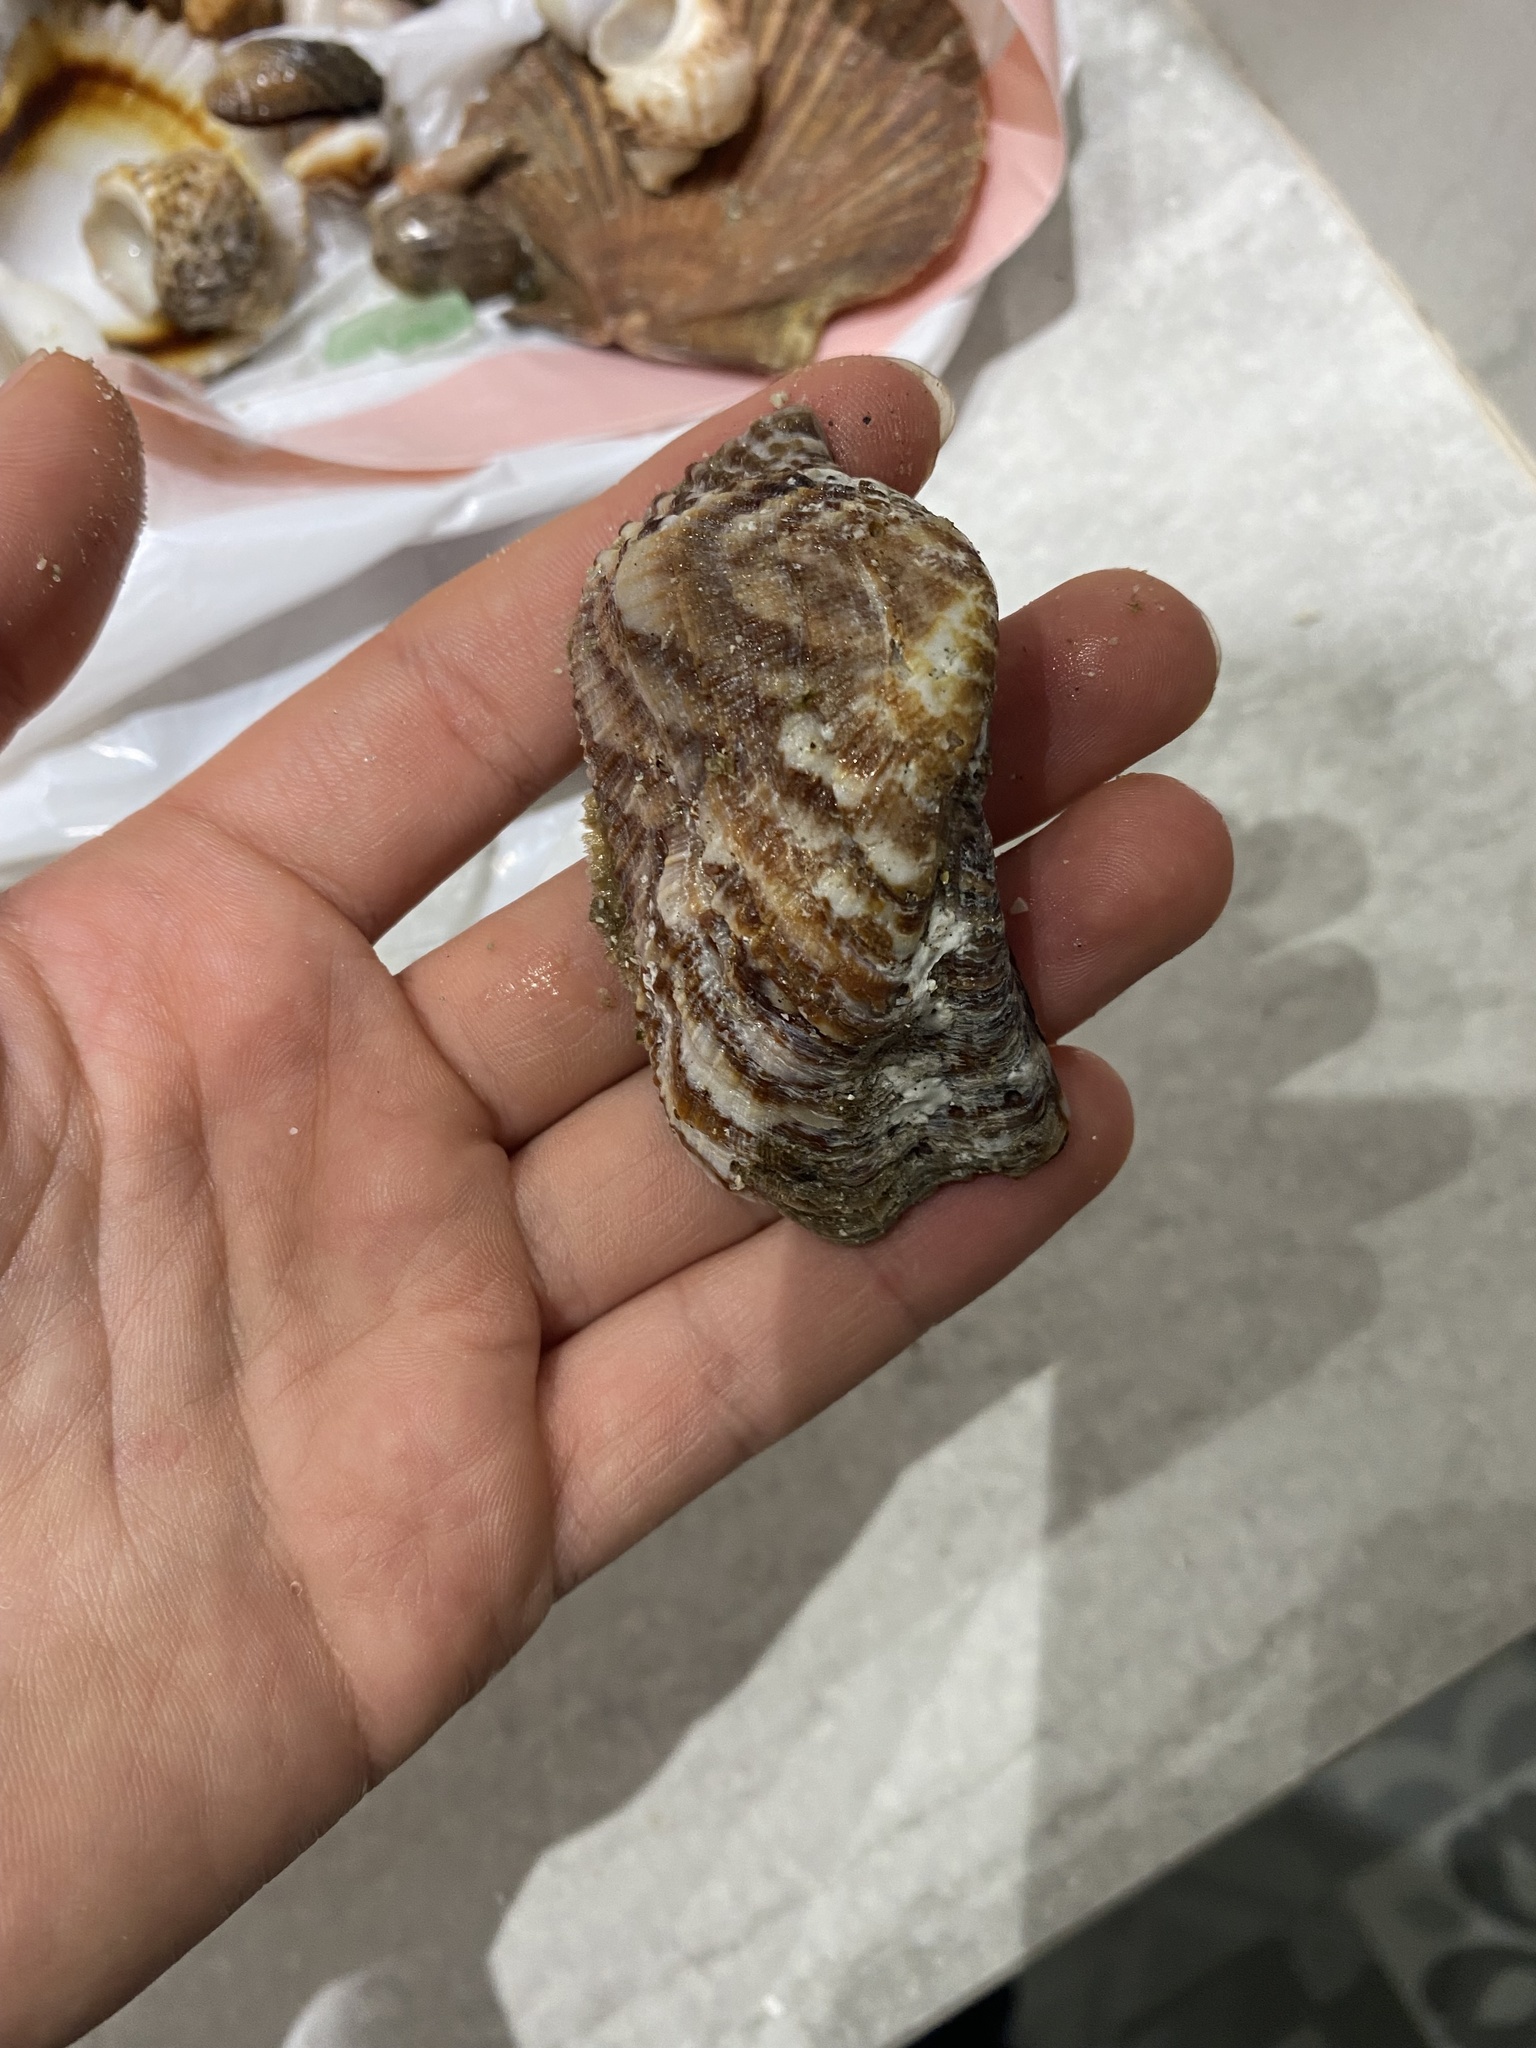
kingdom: Animalia
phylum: Mollusca
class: Bivalvia
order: Arcida
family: Arcidae
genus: Arca
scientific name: Arca pacifica
